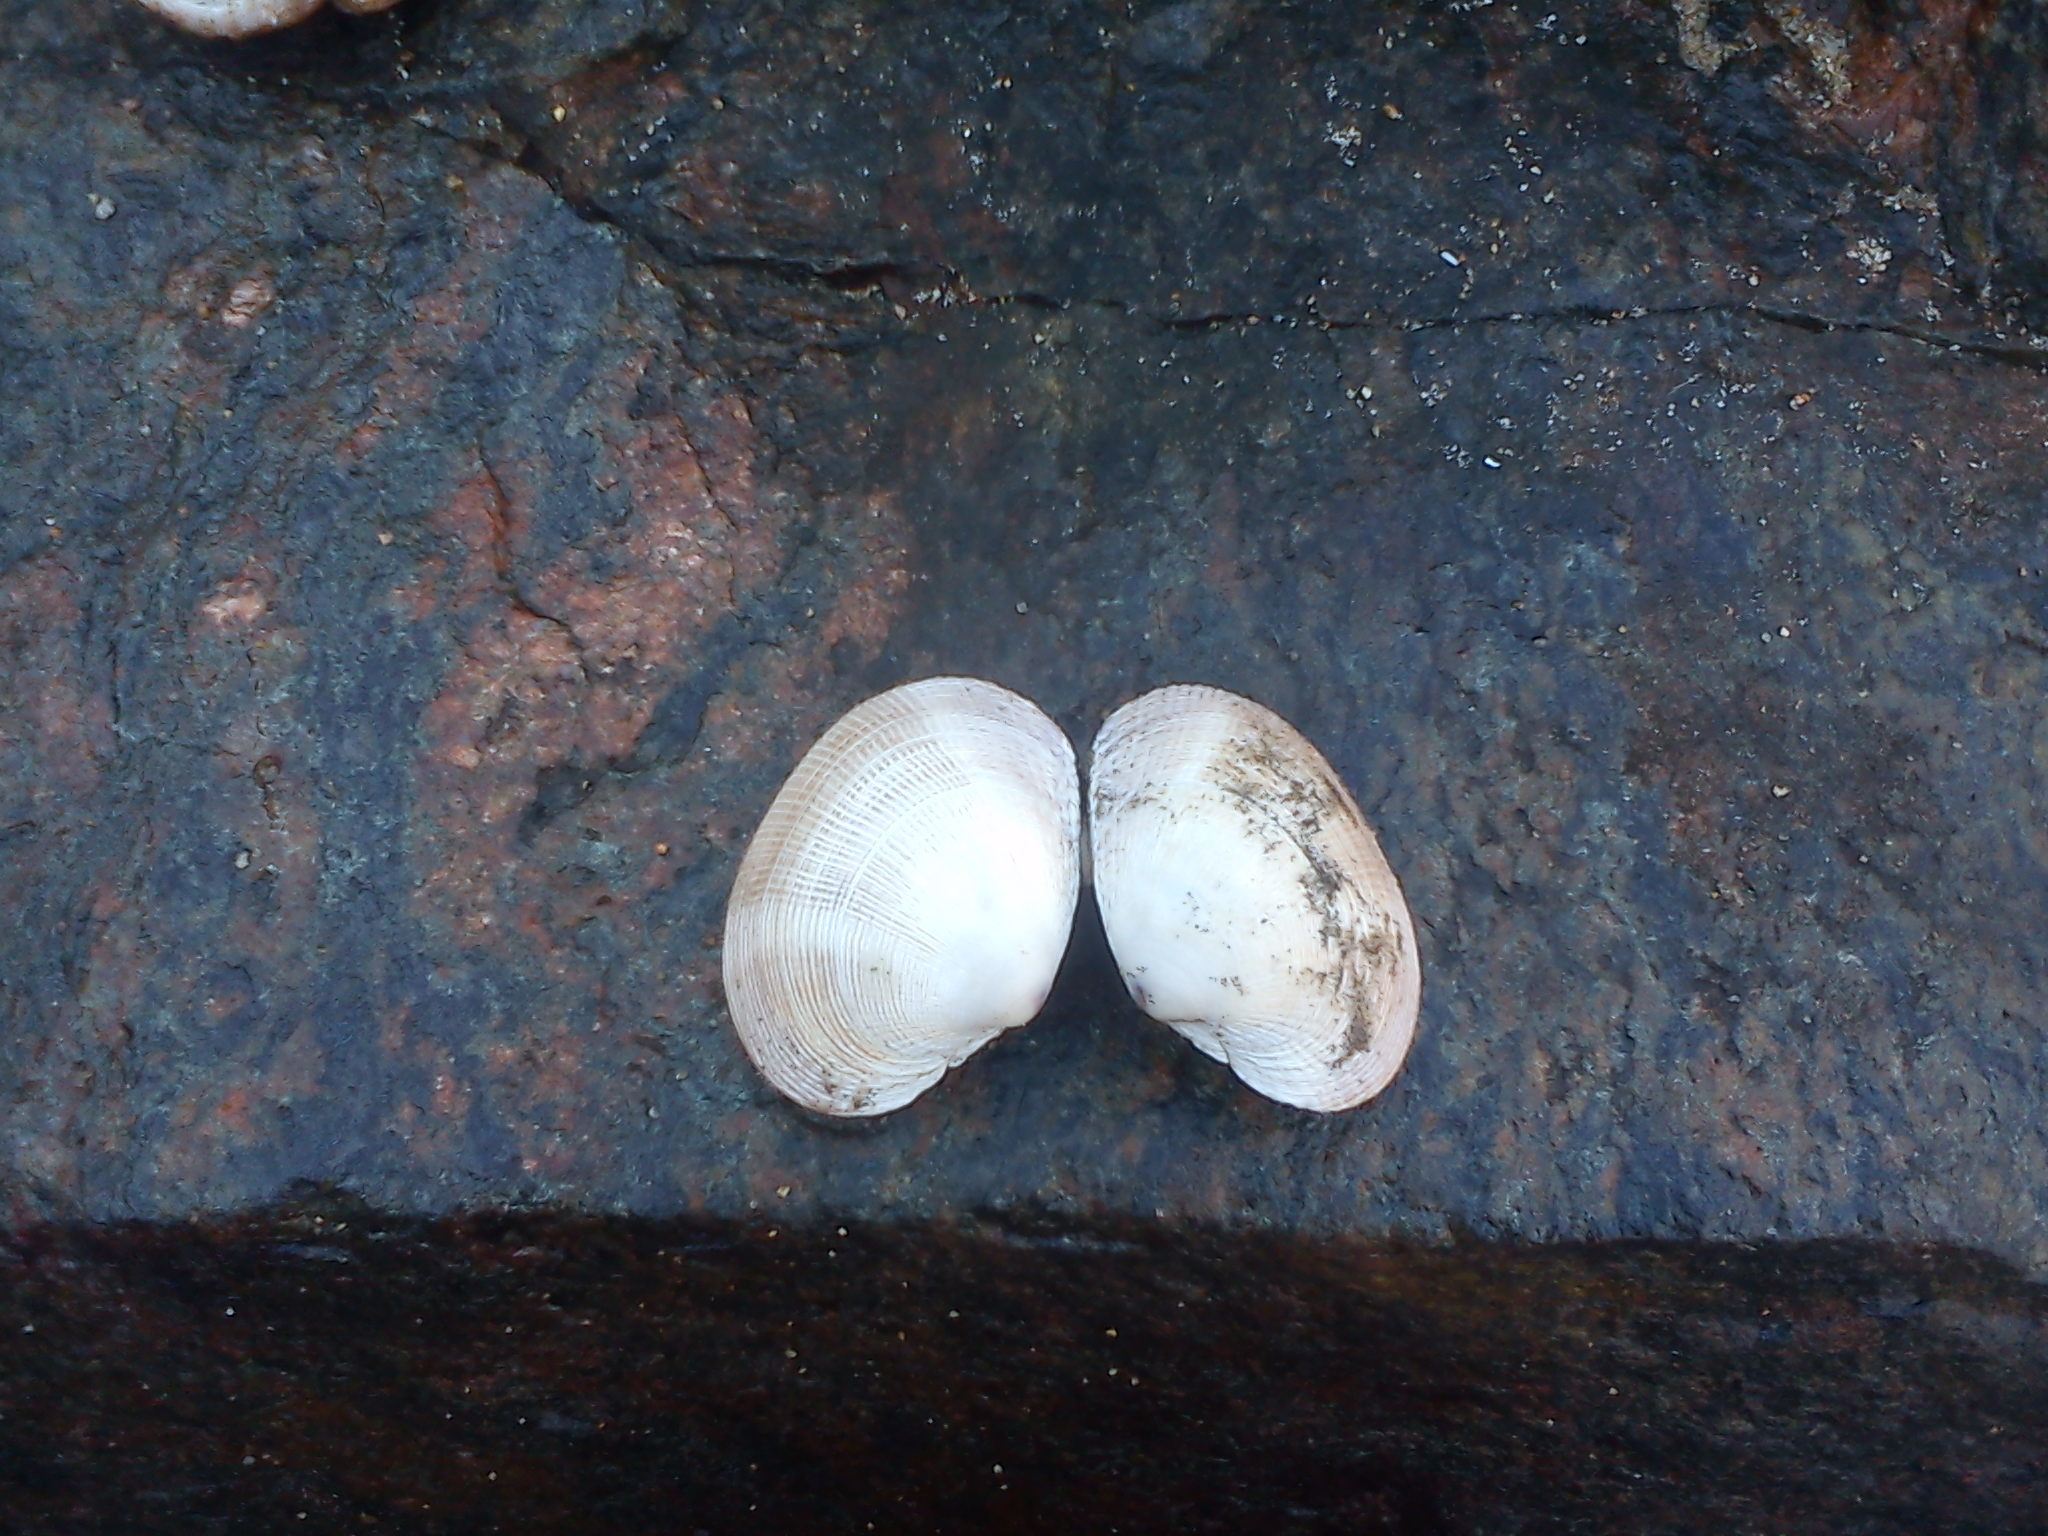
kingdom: Animalia
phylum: Mollusca
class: Bivalvia
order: Venerida
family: Veneridae
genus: Leukoma
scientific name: Leukoma thaca
